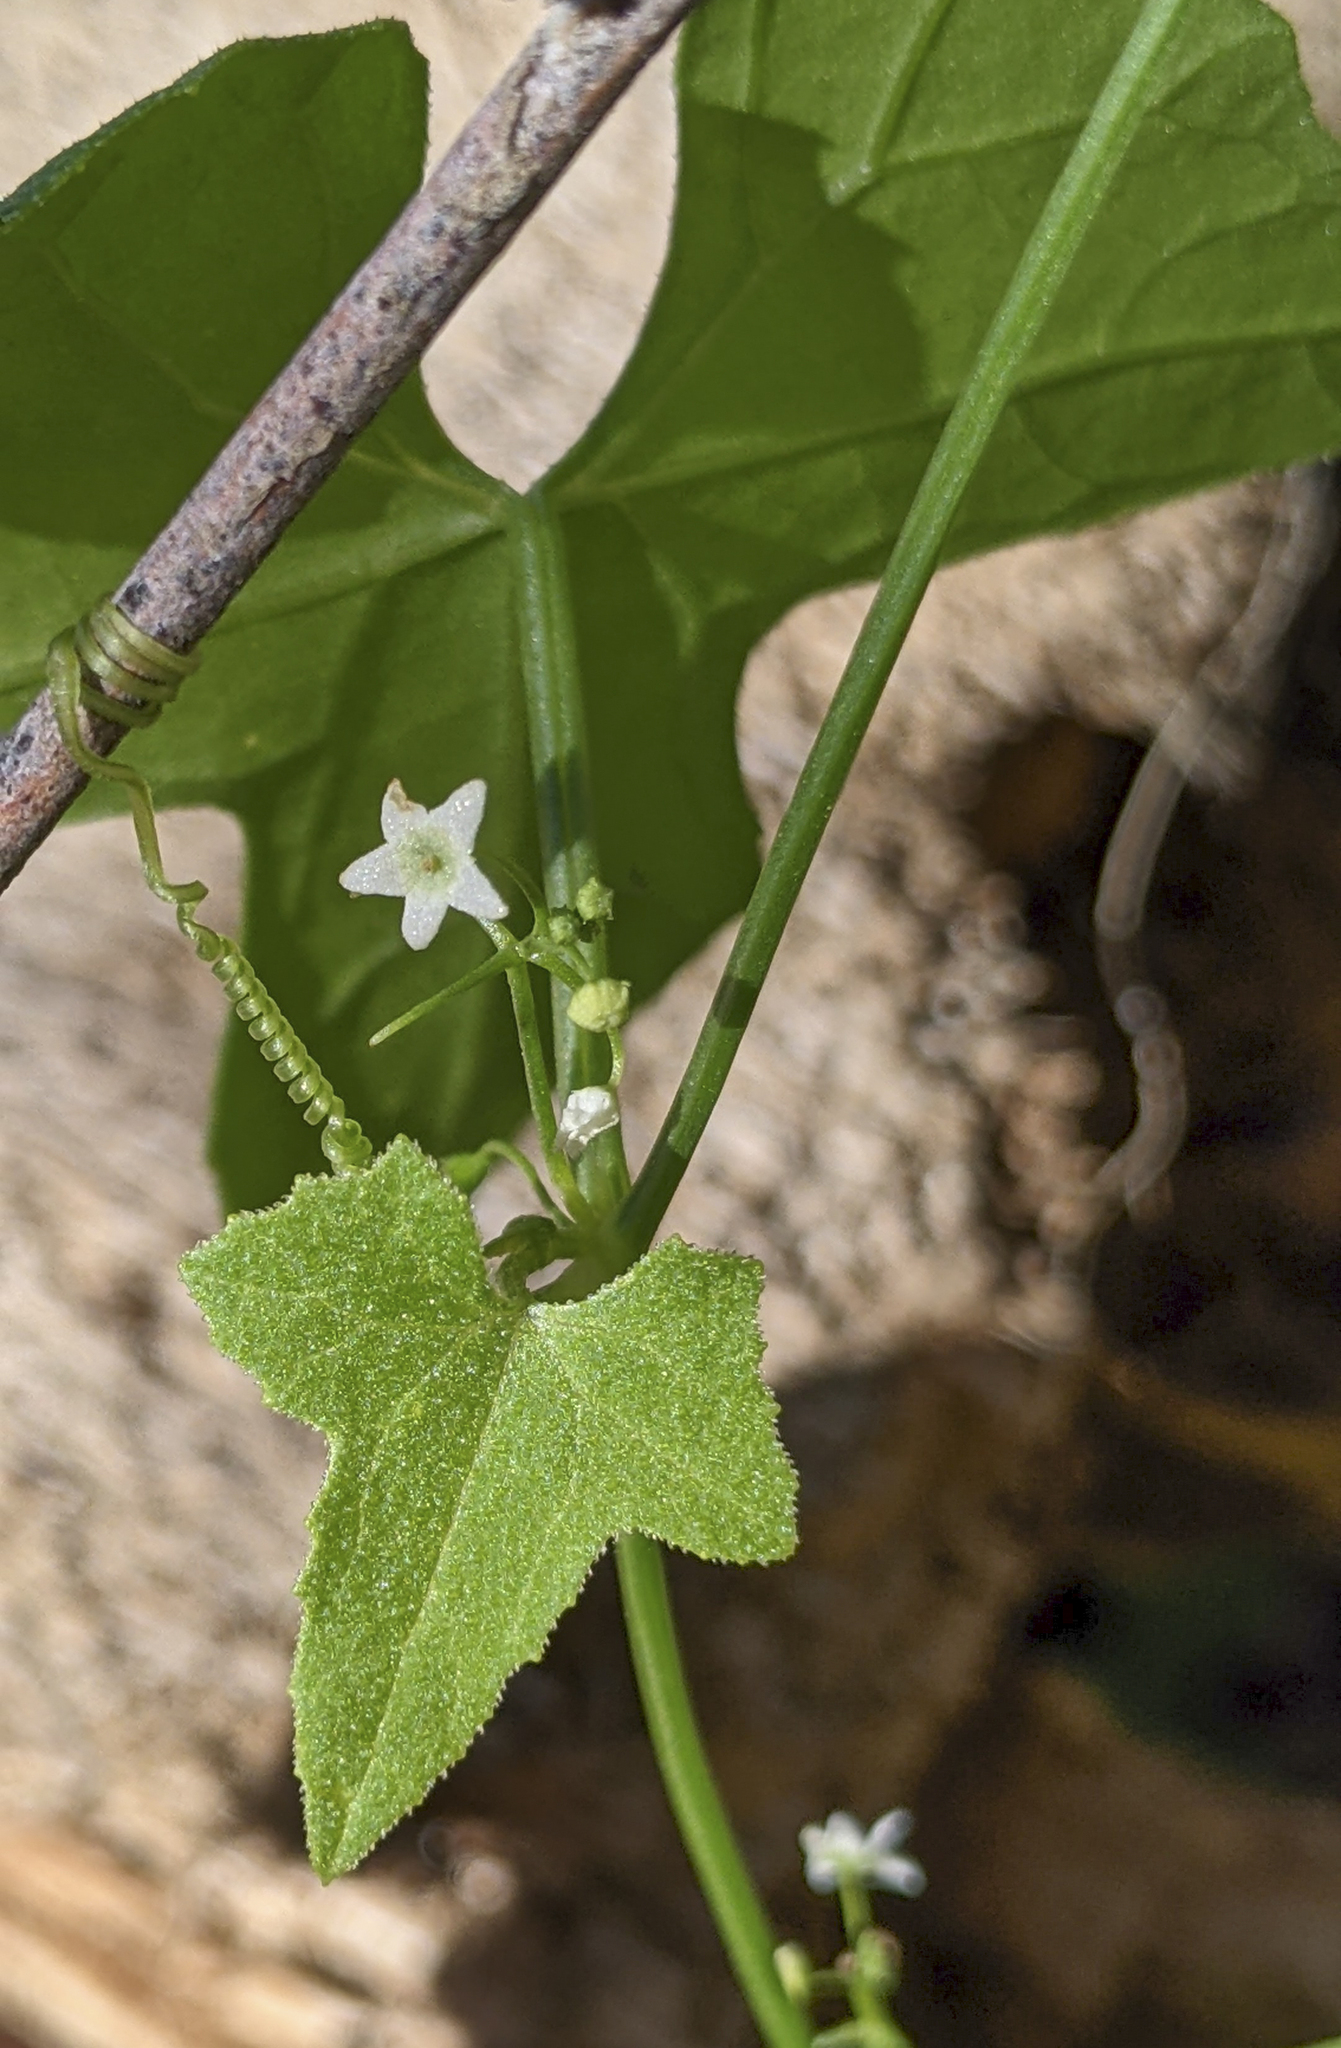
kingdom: Plantae
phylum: Tracheophyta
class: Magnoliopsida
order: Cucurbitales
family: Cucurbitaceae
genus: Echinopepon
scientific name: Echinopepon bigelovii
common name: Desert starvine
